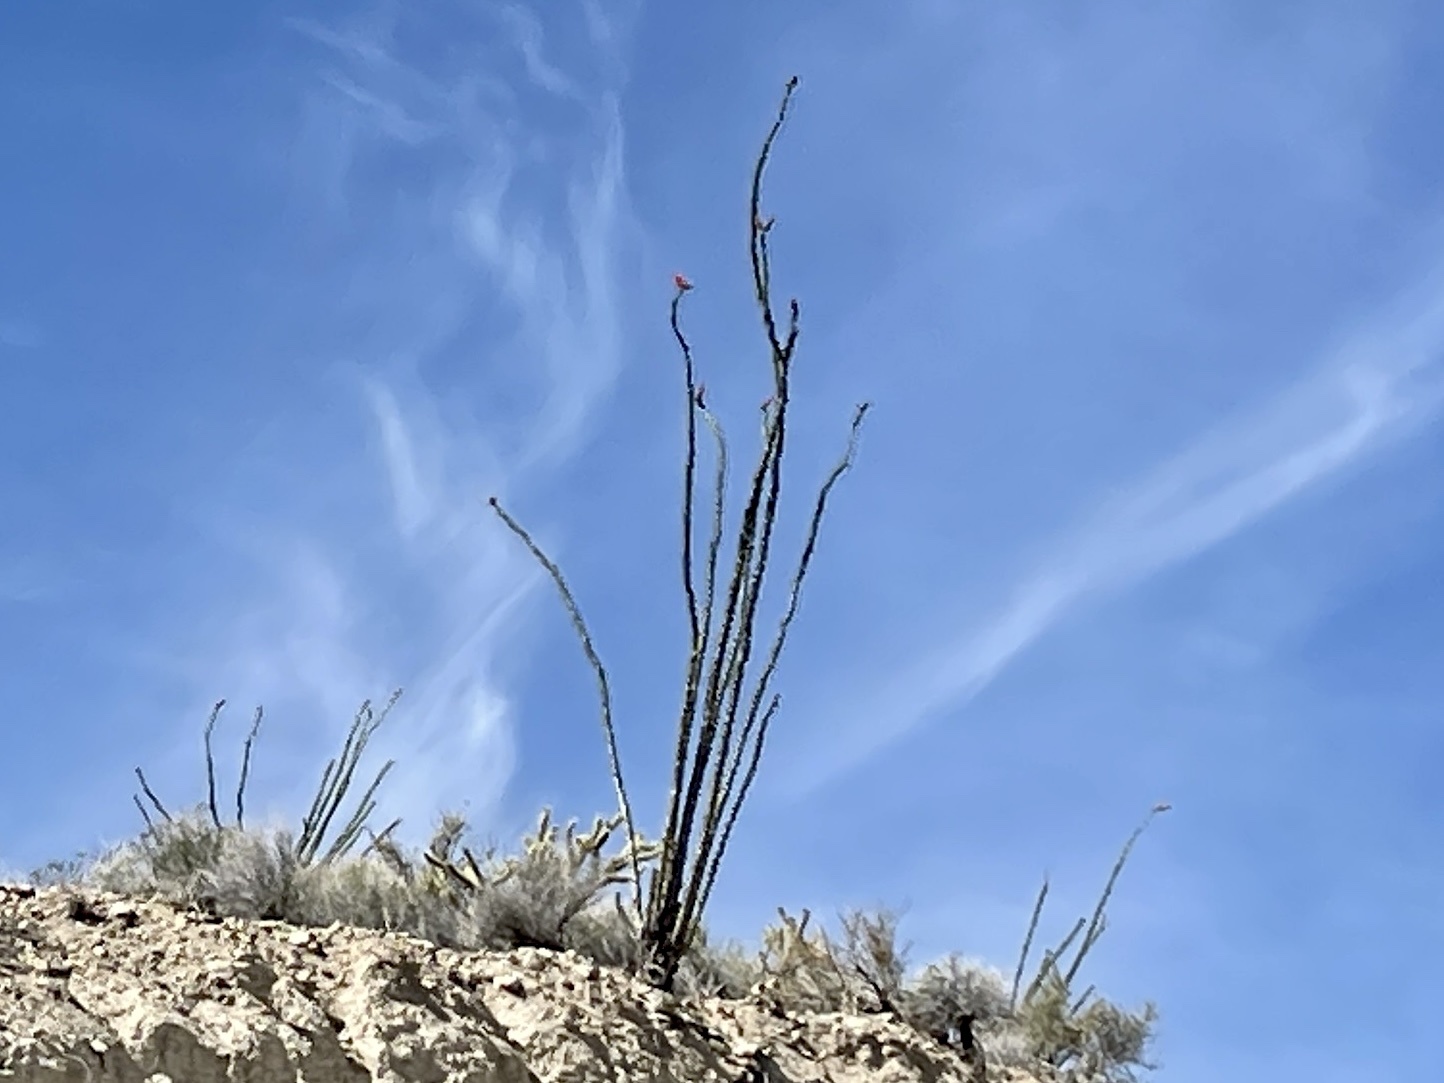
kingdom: Plantae
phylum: Tracheophyta
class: Magnoliopsida
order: Ericales
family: Fouquieriaceae
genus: Fouquieria
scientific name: Fouquieria splendens
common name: Vine-cactus
